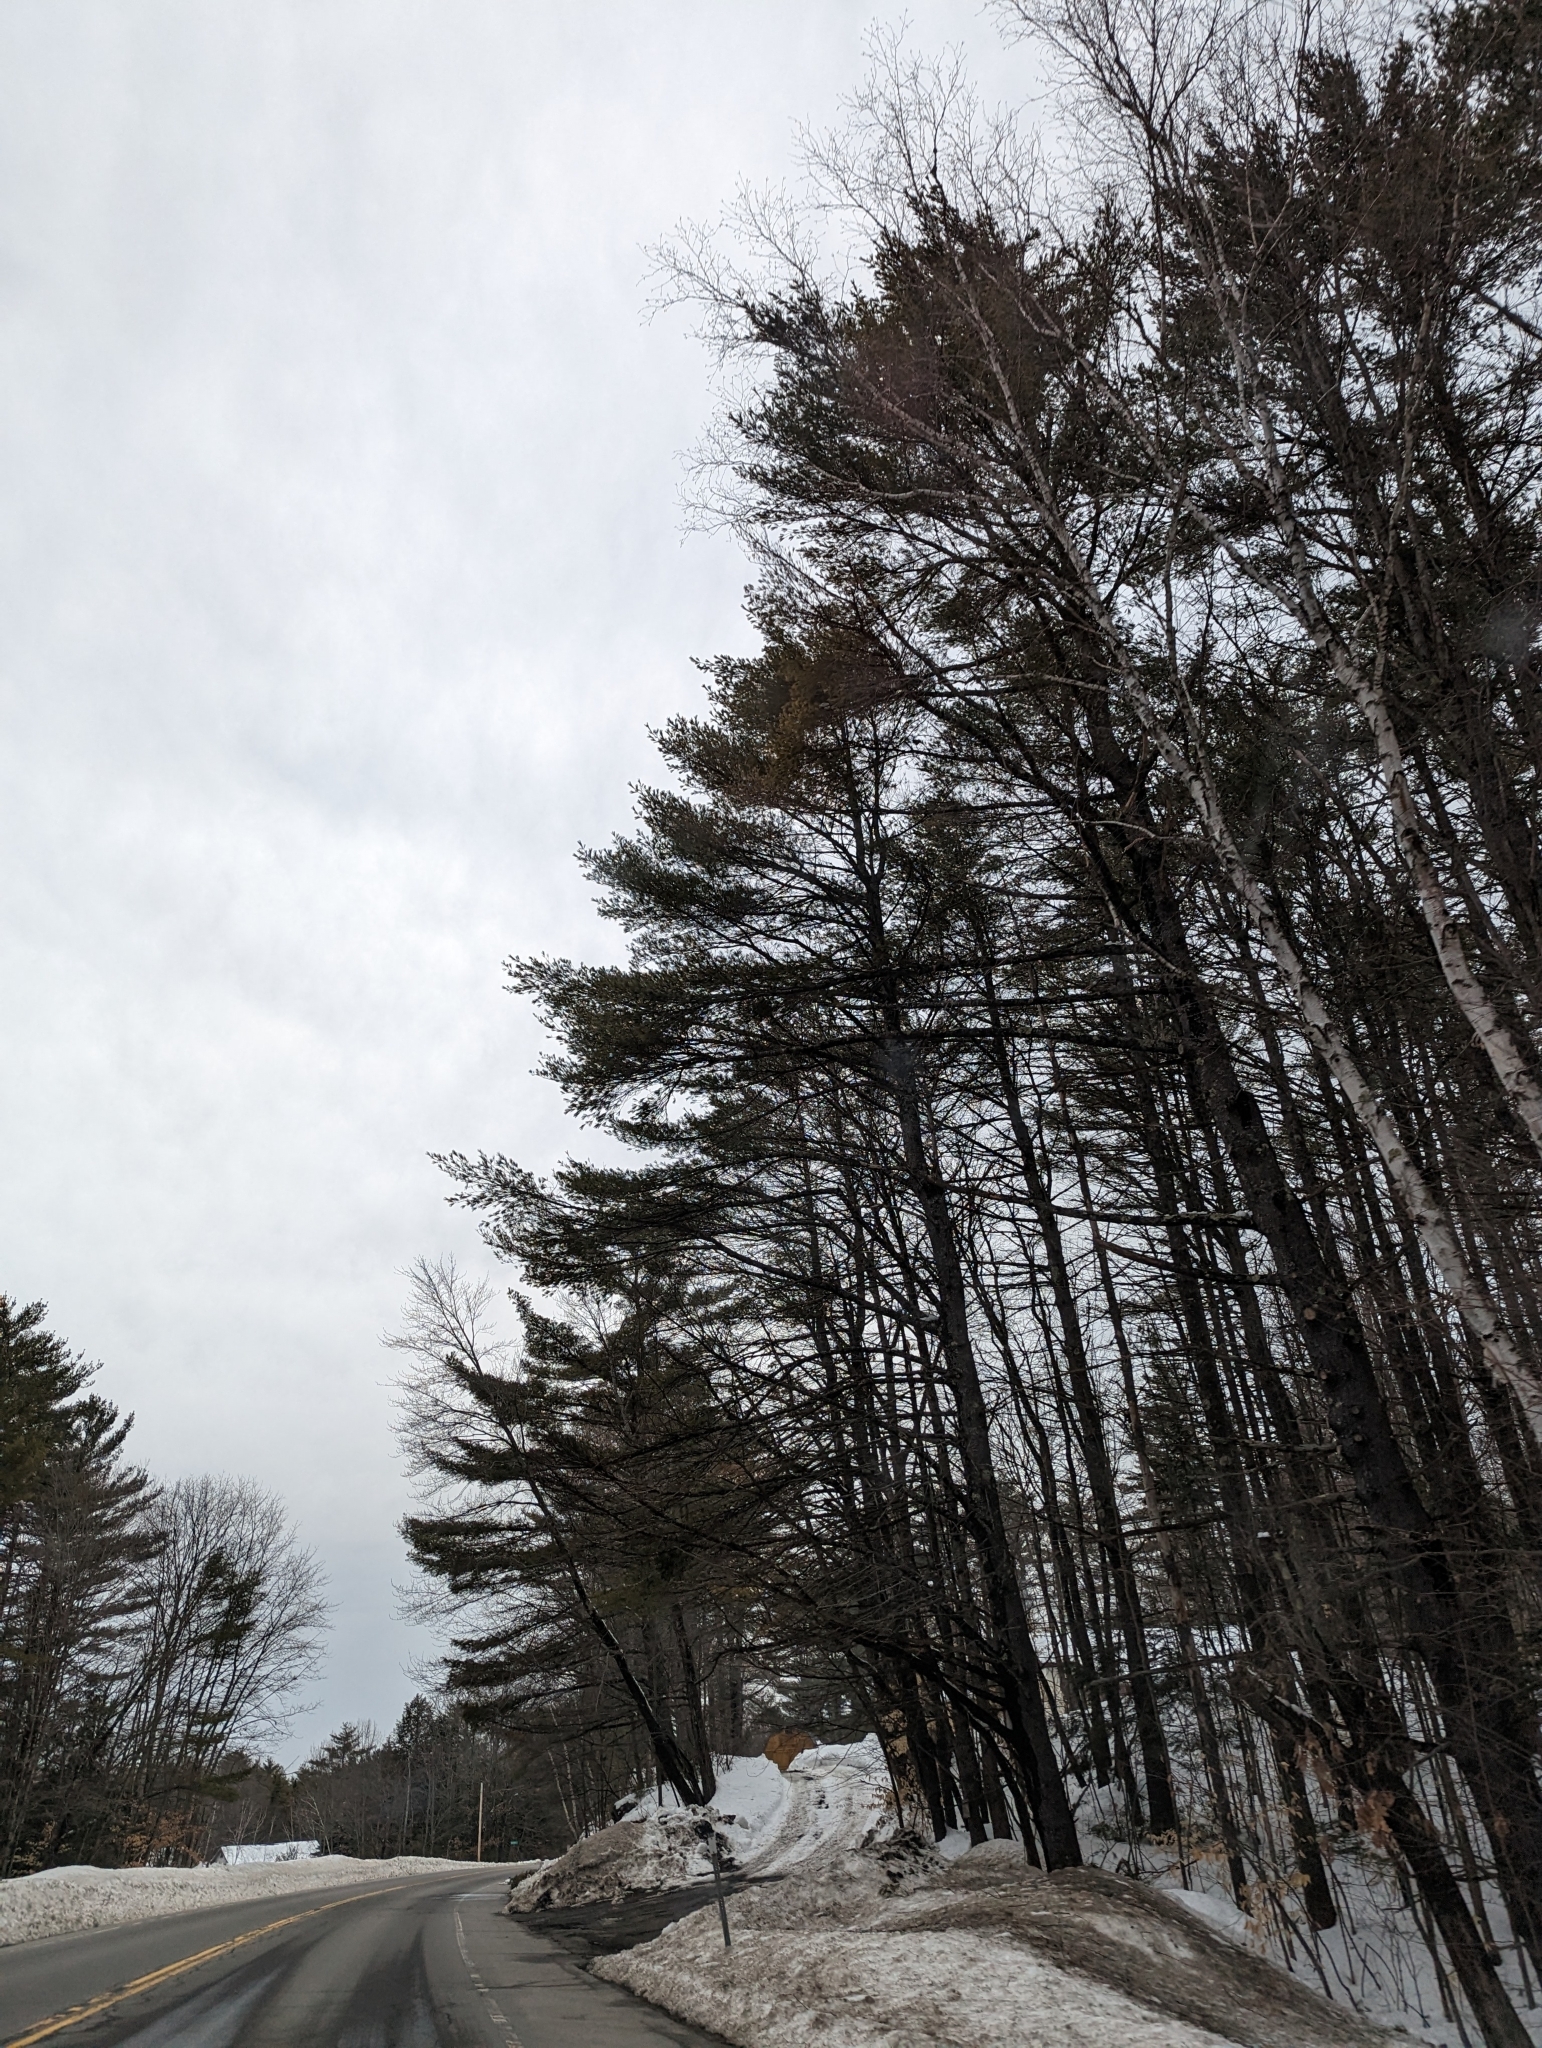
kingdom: Plantae
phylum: Tracheophyta
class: Pinopsida
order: Pinales
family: Pinaceae
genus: Pinus
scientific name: Pinus strobus
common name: Weymouth pine
